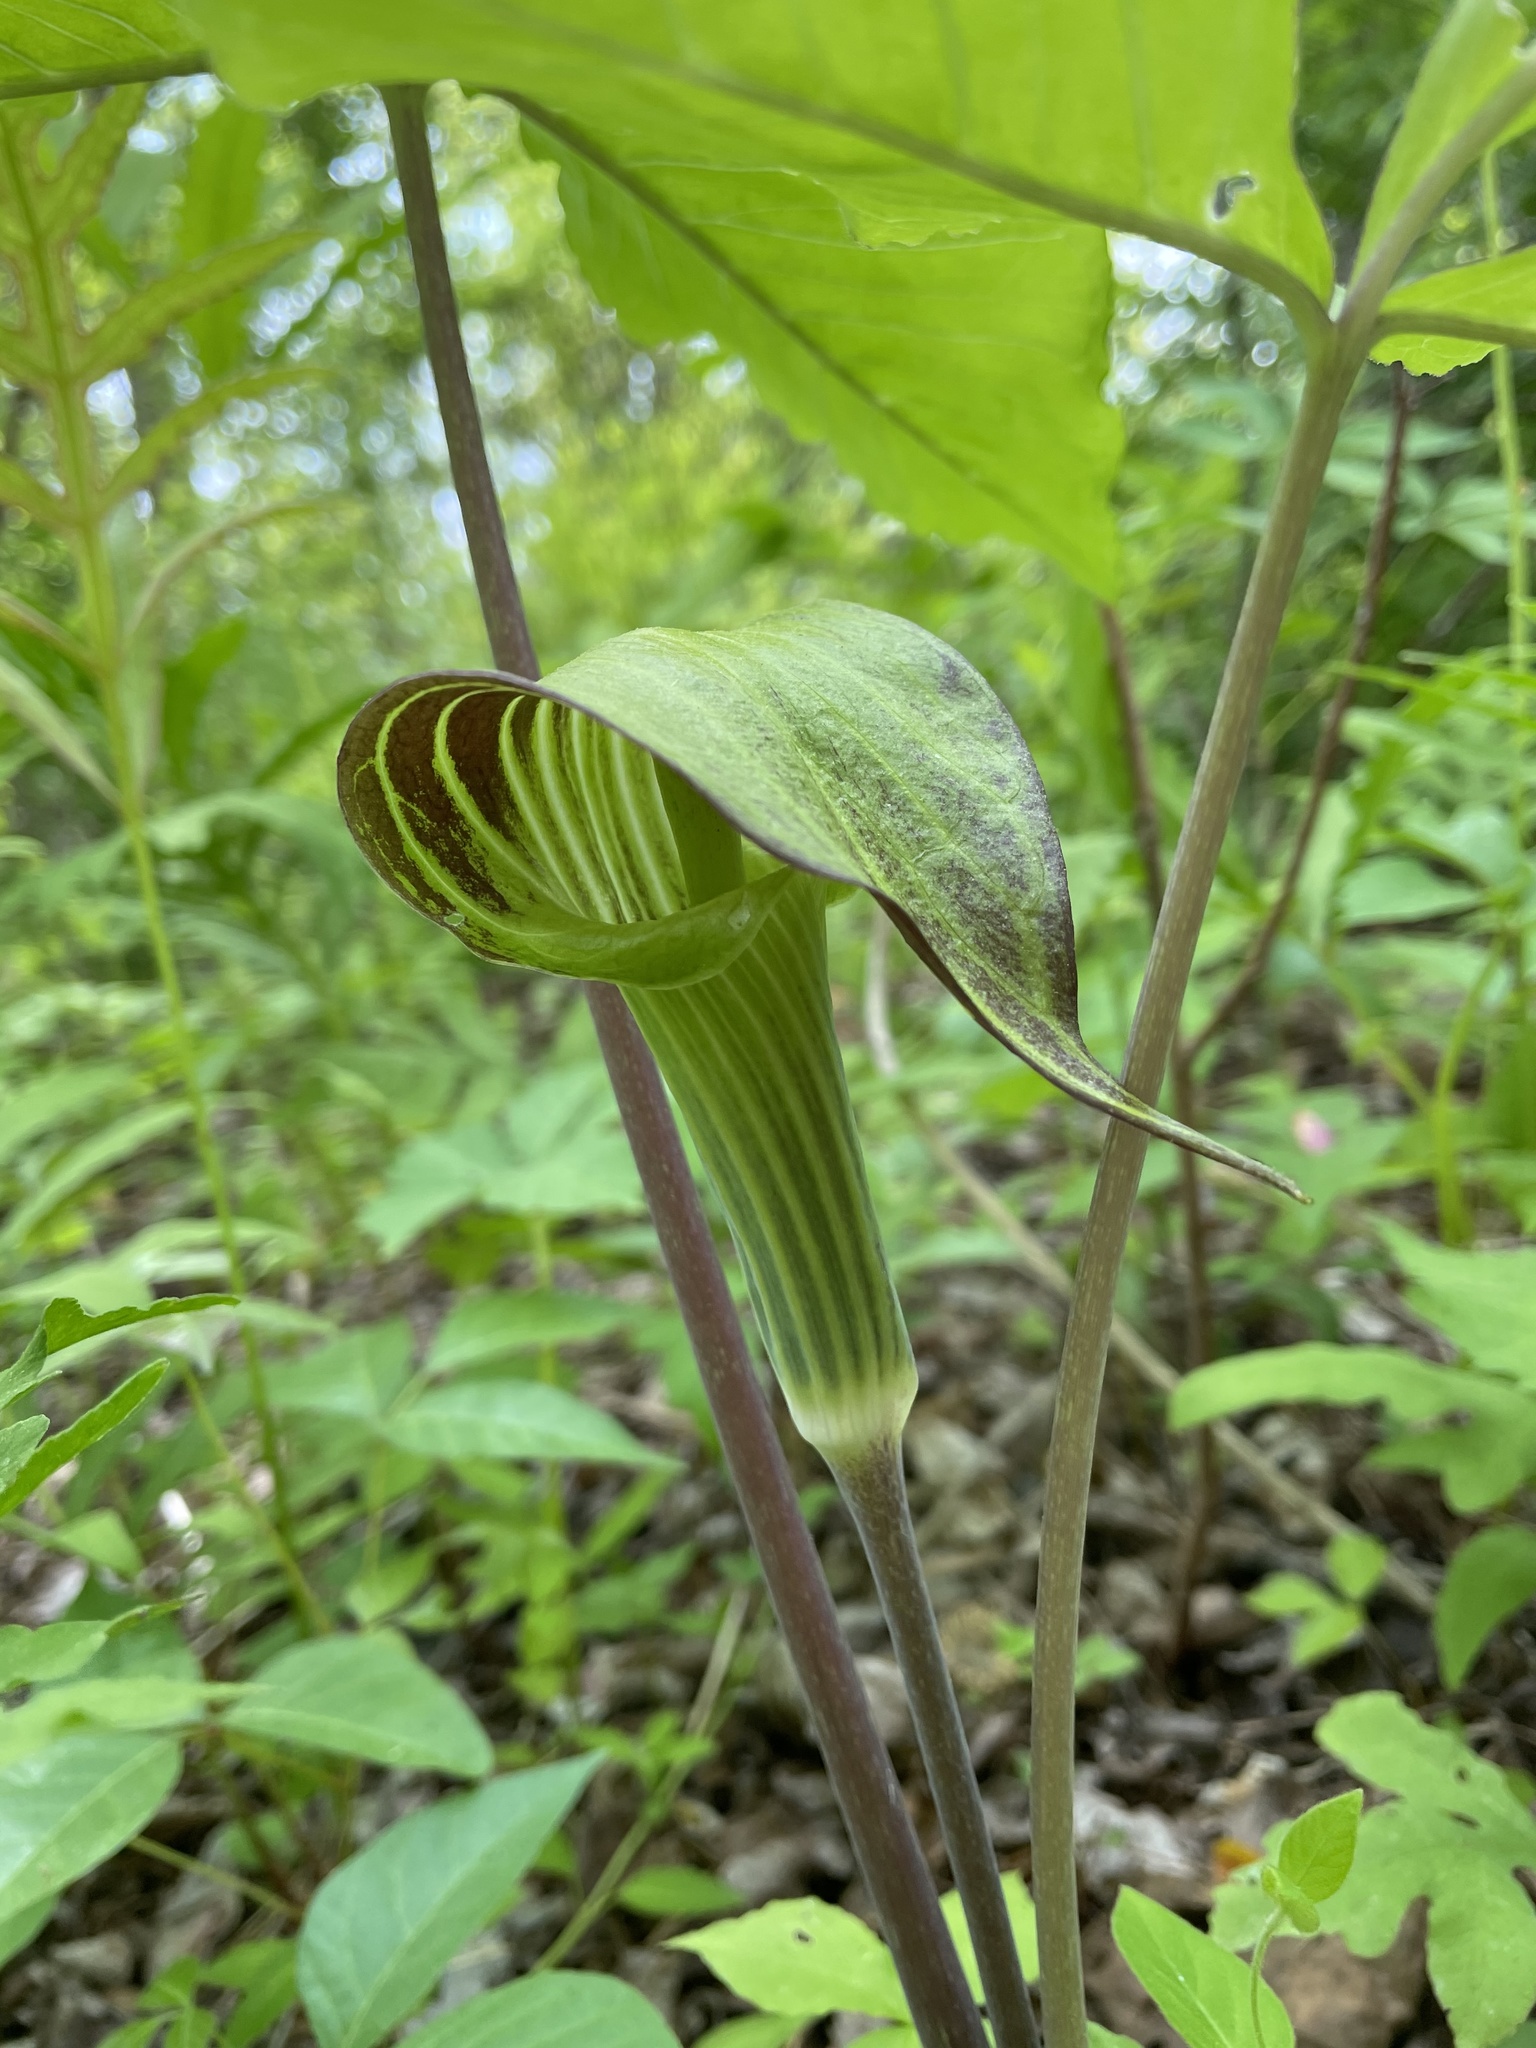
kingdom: Plantae
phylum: Tracheophyta
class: Liliopsida
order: Alismatales
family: Araceae
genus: Arisaema
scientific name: Arisaema triphyllum
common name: Jack-in-the-pulpit
